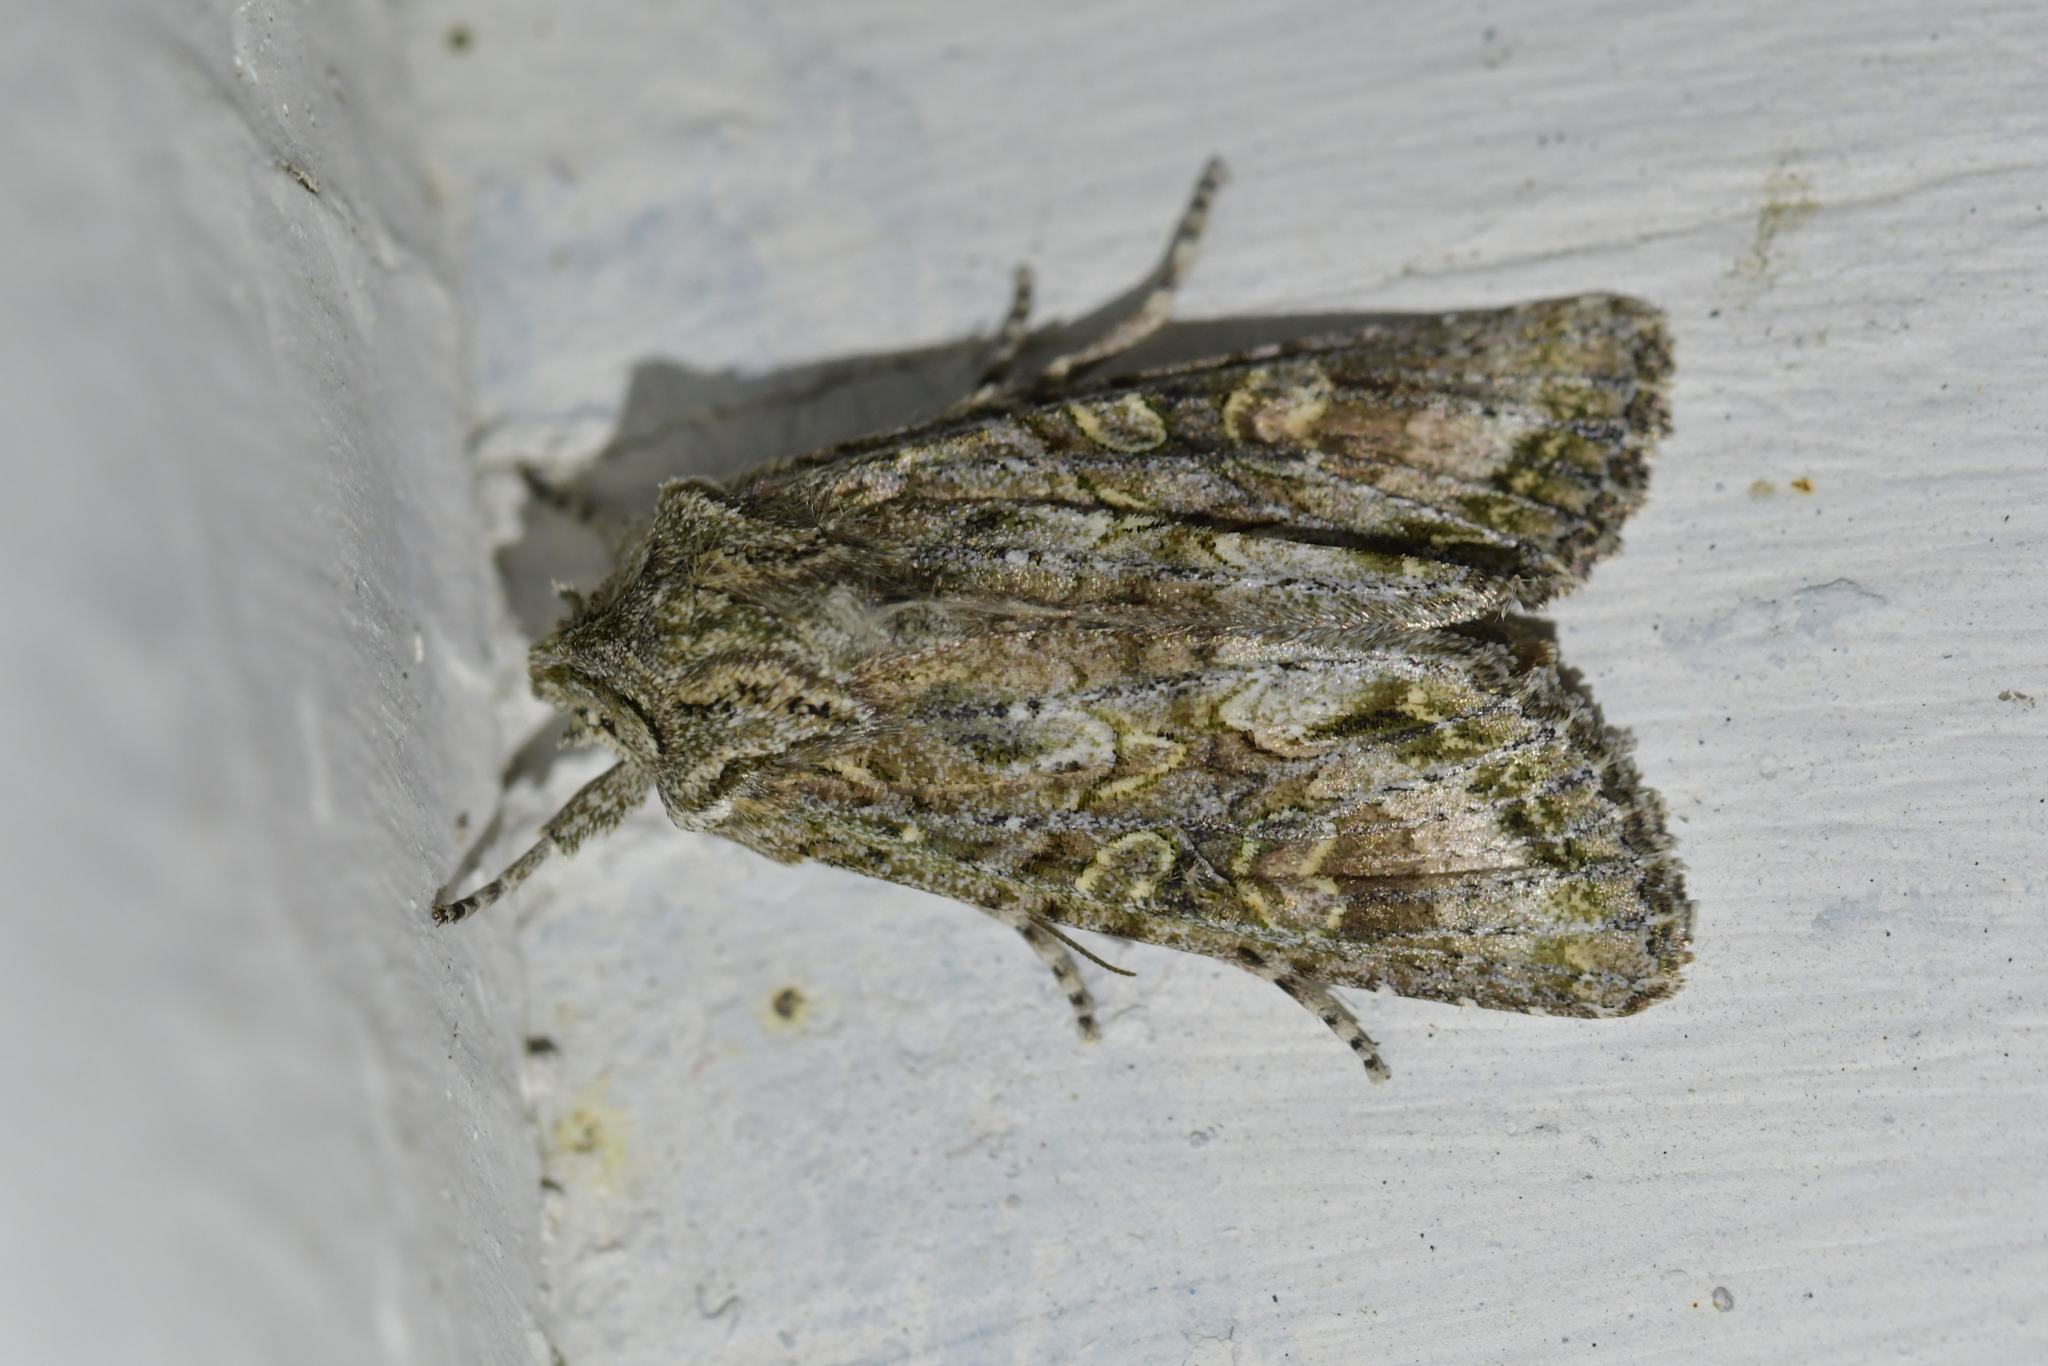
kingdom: Animalia
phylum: Arthropoda
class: Insecta
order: Lepidoptera
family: Noctuidae
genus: Ichneutica
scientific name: Ichneutica mutans
